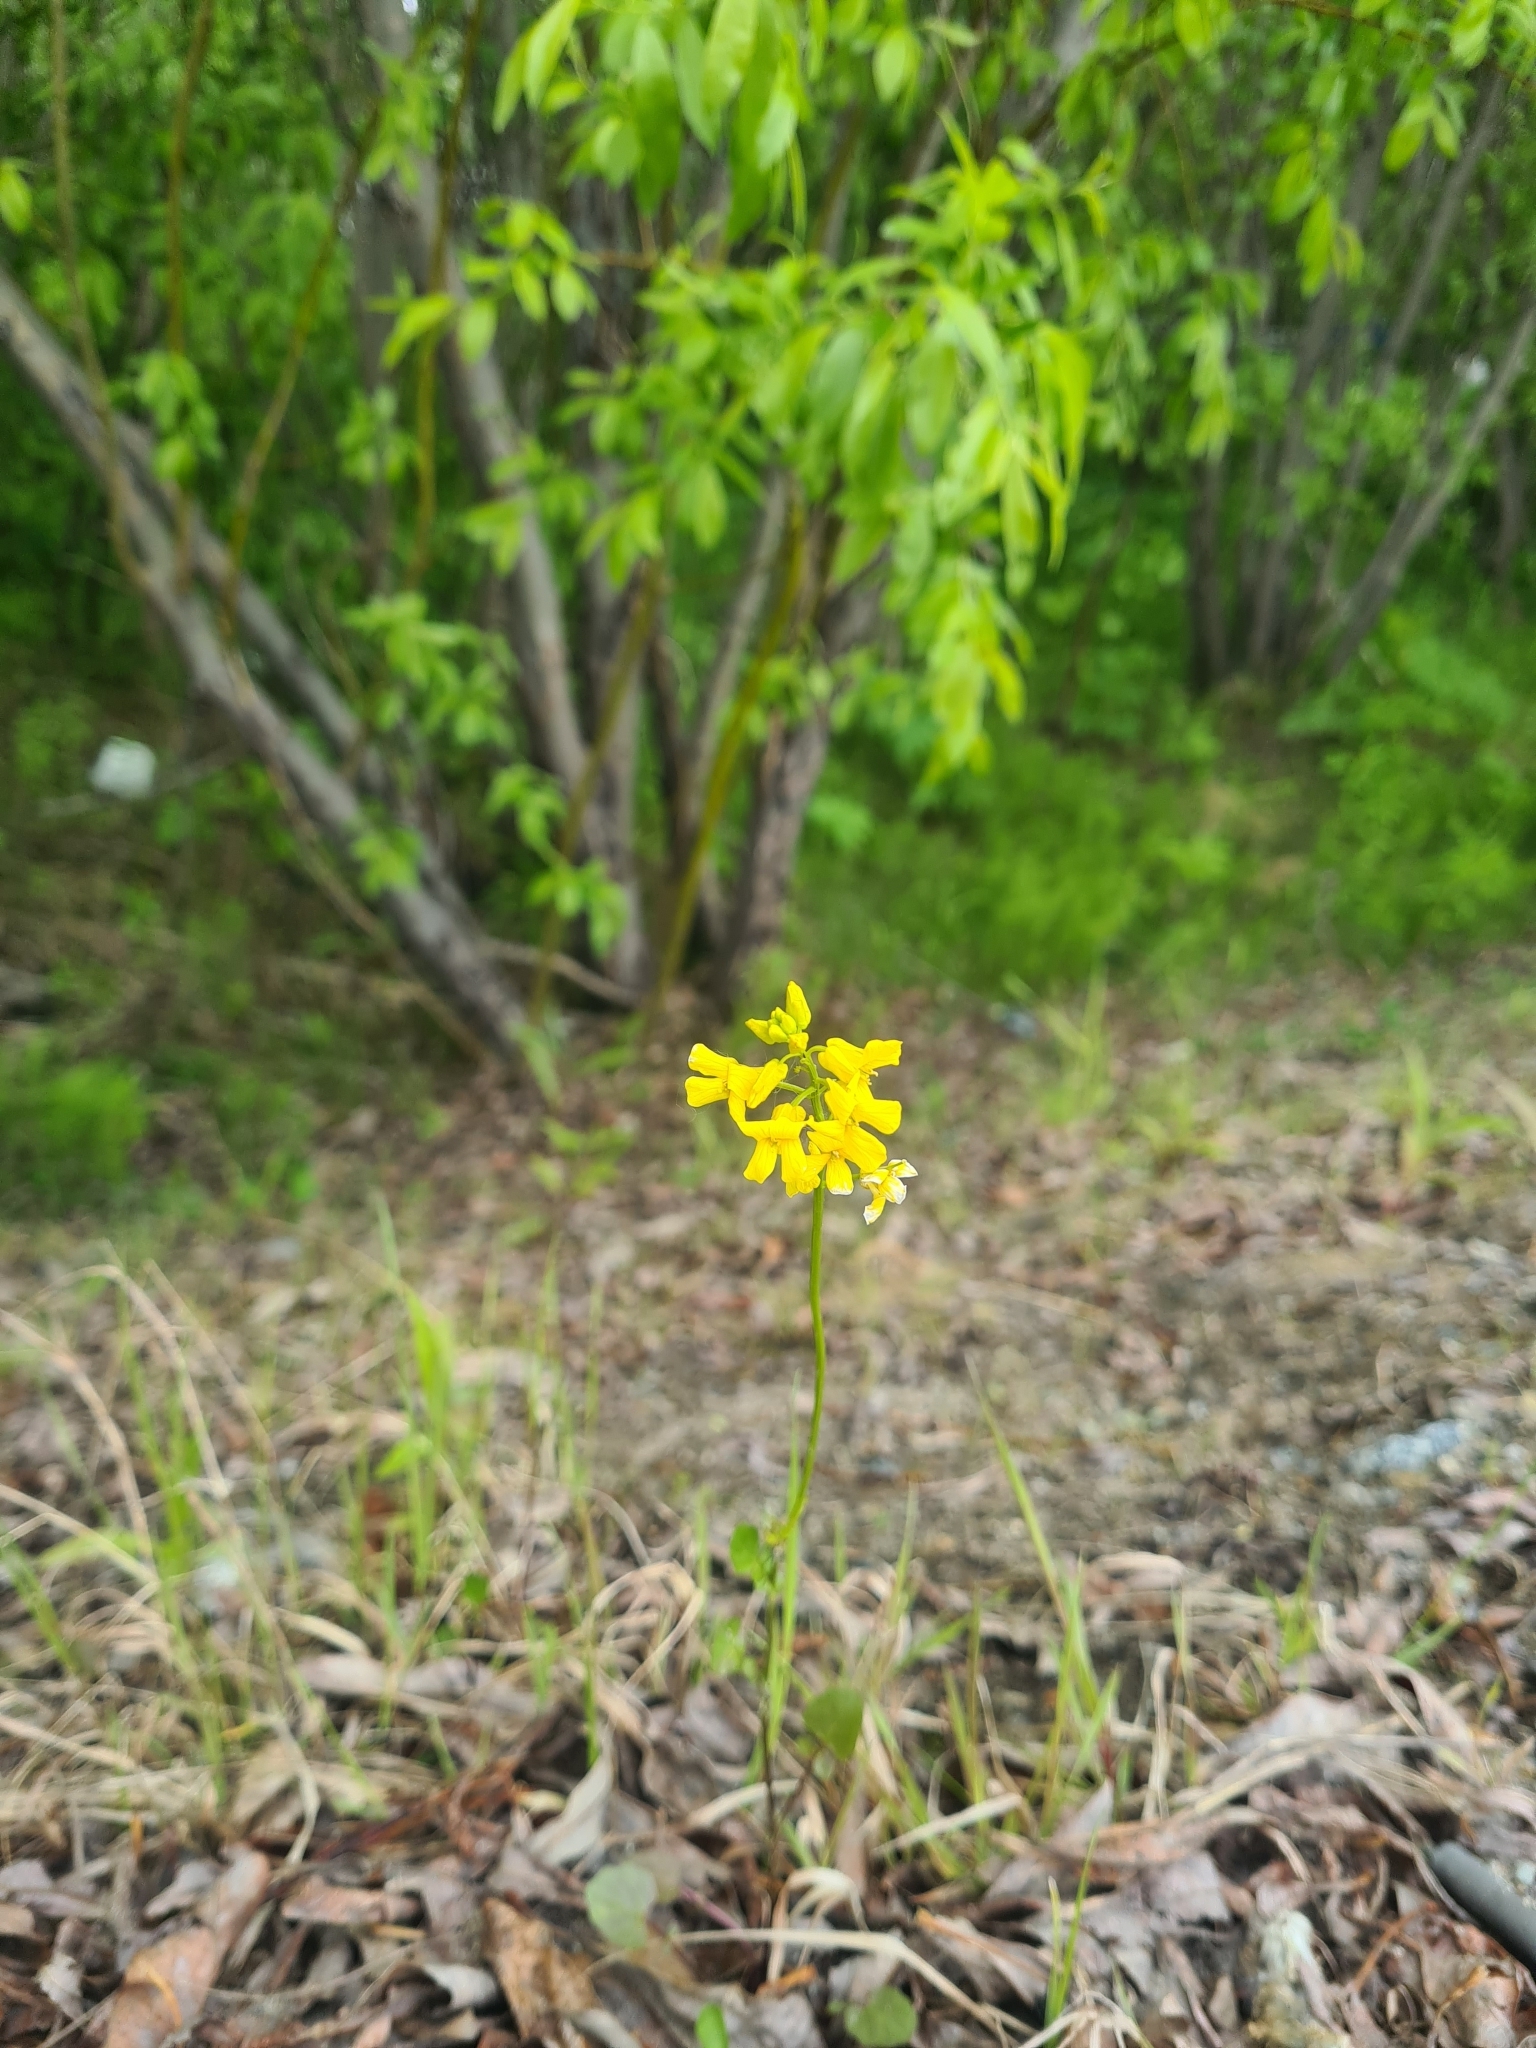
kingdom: Plantae
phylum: Tracheophyta
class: Magnoliopsida
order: Brassicales
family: Brassicaceae
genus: Barbarea
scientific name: Barbarea vulgaris
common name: Cressy-greens
